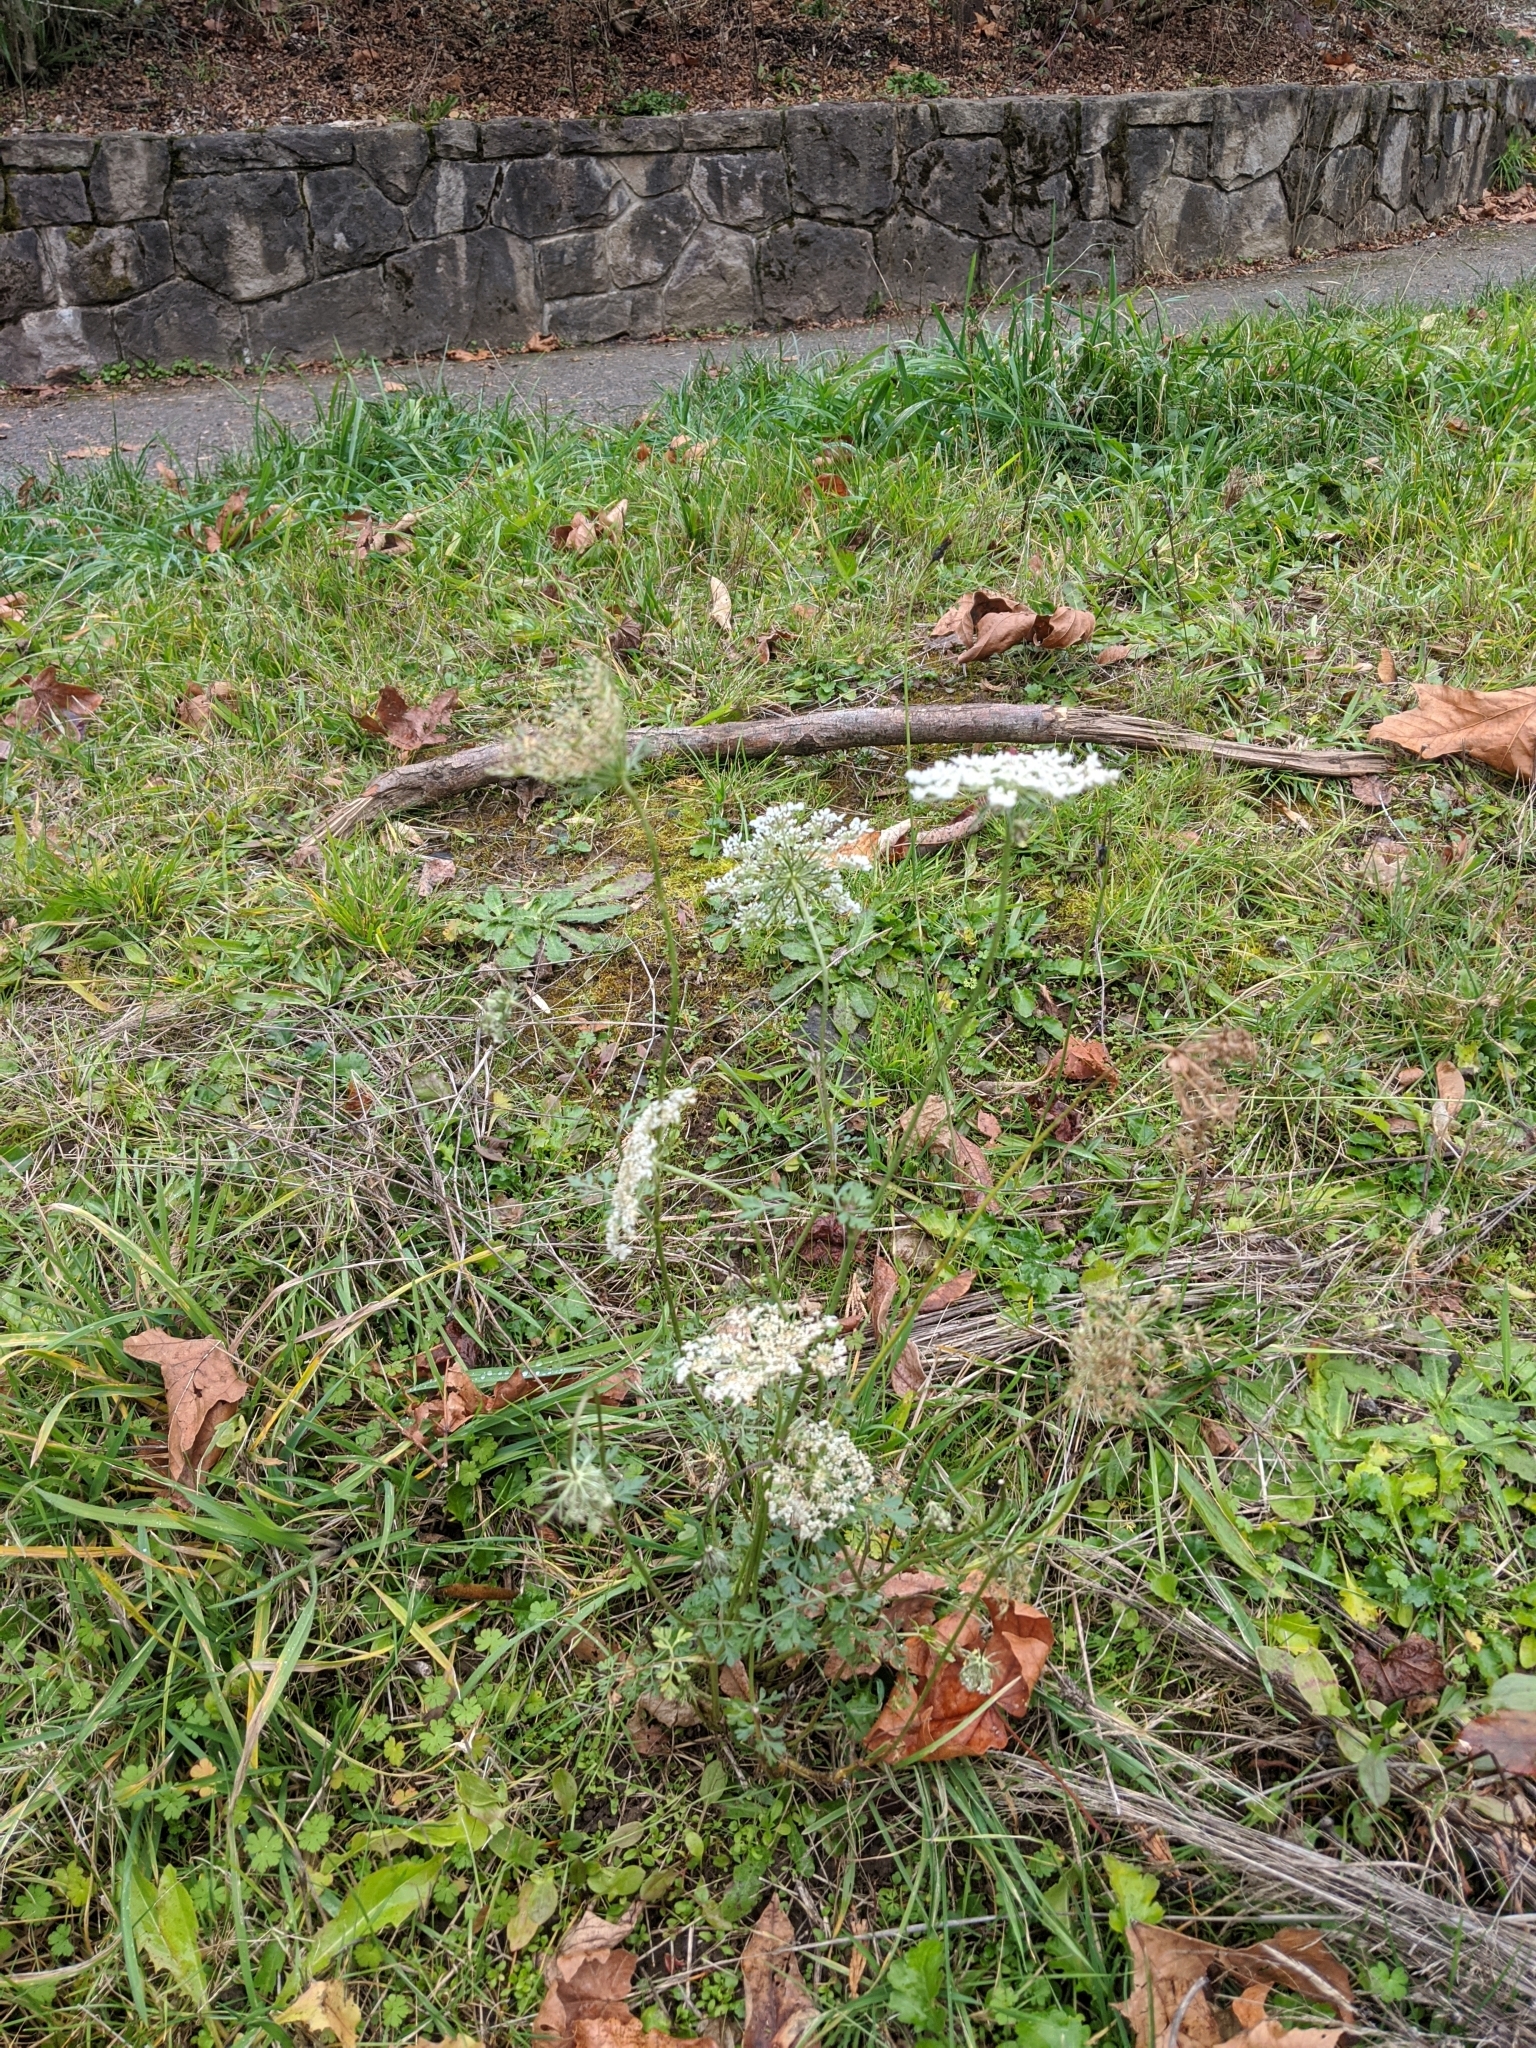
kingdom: Plantae
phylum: Tracheophyta
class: Magnoliopsida
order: Apiales
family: Apiaceae
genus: Daucus
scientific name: Daucus carota
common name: Wild carrot
